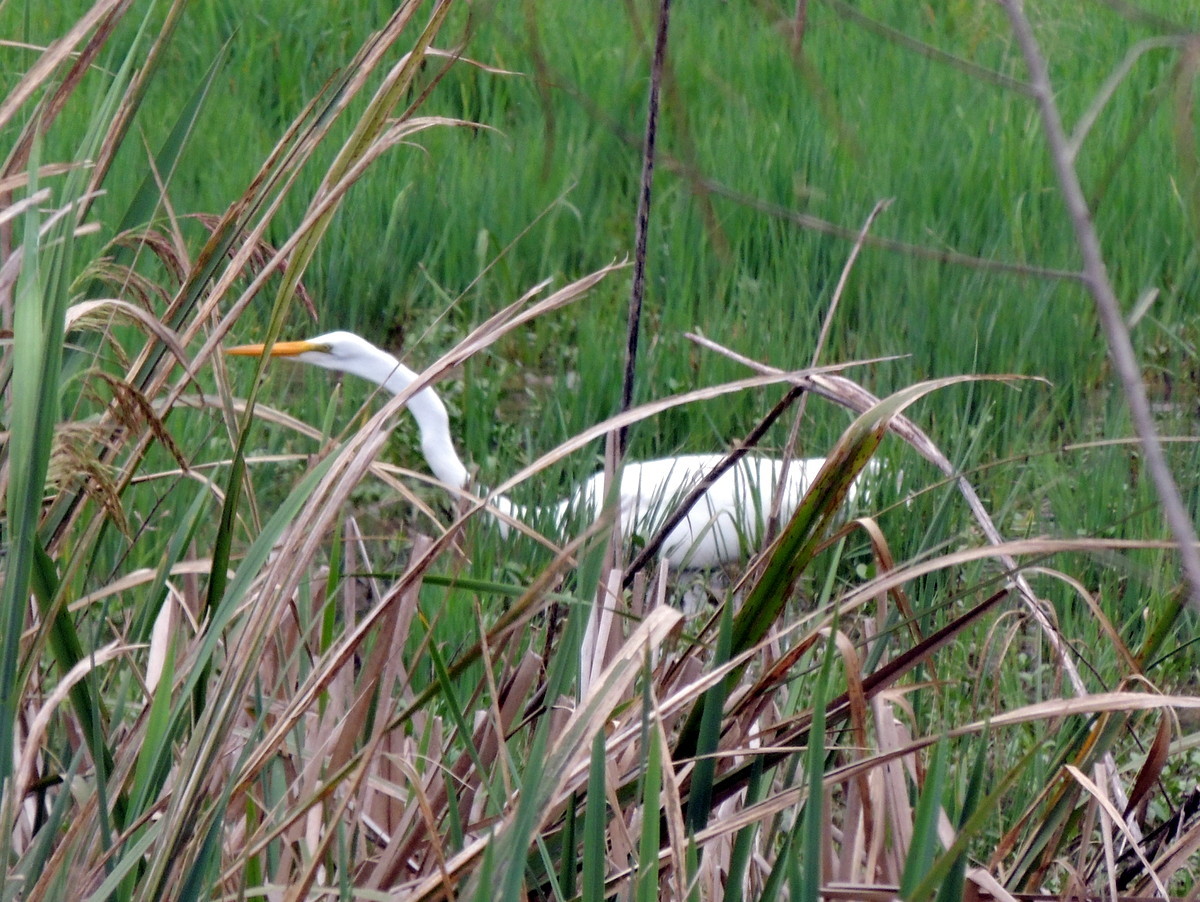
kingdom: Animalia
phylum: Chordata
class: Aves
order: Pelecaniformes
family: Ardeidae
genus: Ardea
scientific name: Ardea alba
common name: Great egret
